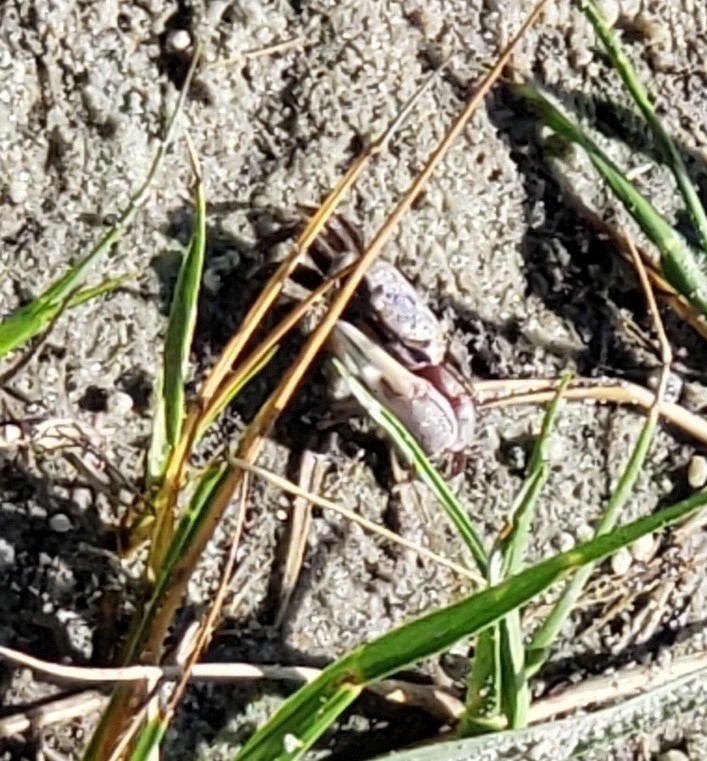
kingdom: Animalia
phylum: Arthropoda
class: Malacostraca
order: Decapoda
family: Ocypodidae
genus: Leptuca
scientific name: Leptuca pugilator
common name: Atlantic sand fiddler crab
